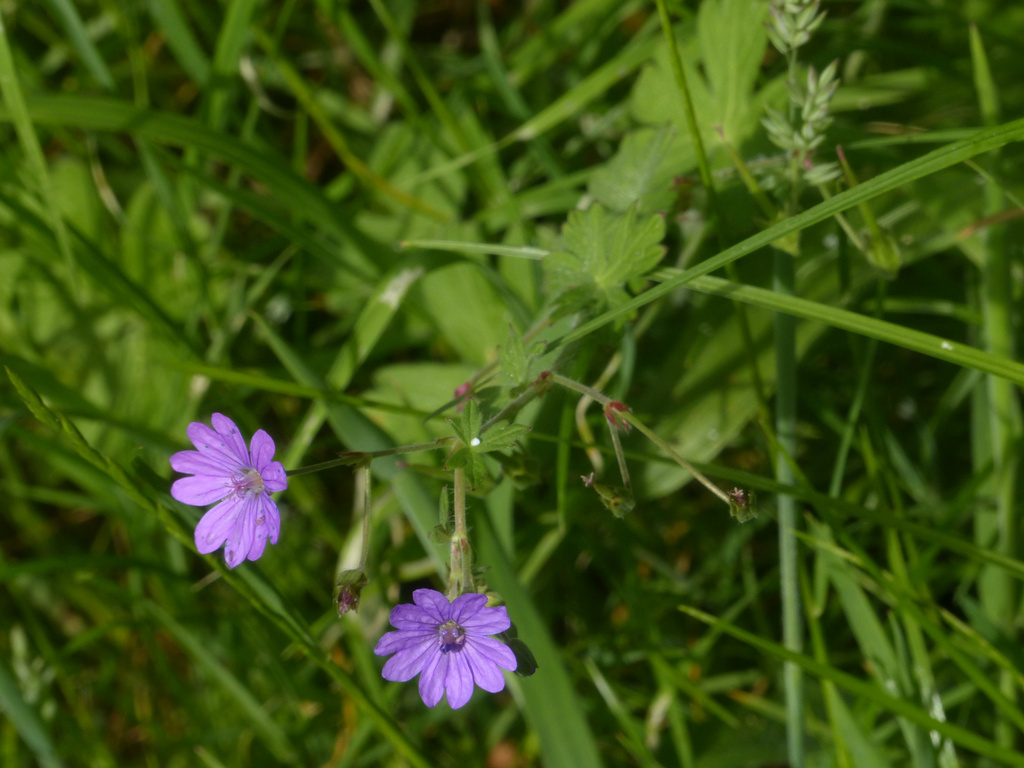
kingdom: Plantae
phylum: Tracheophyta
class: Magnoliopsida
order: Geraniales
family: Geraniaceae
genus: Geranium
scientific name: Geranium pyrenaicum
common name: Hedgerow crane's-bill
